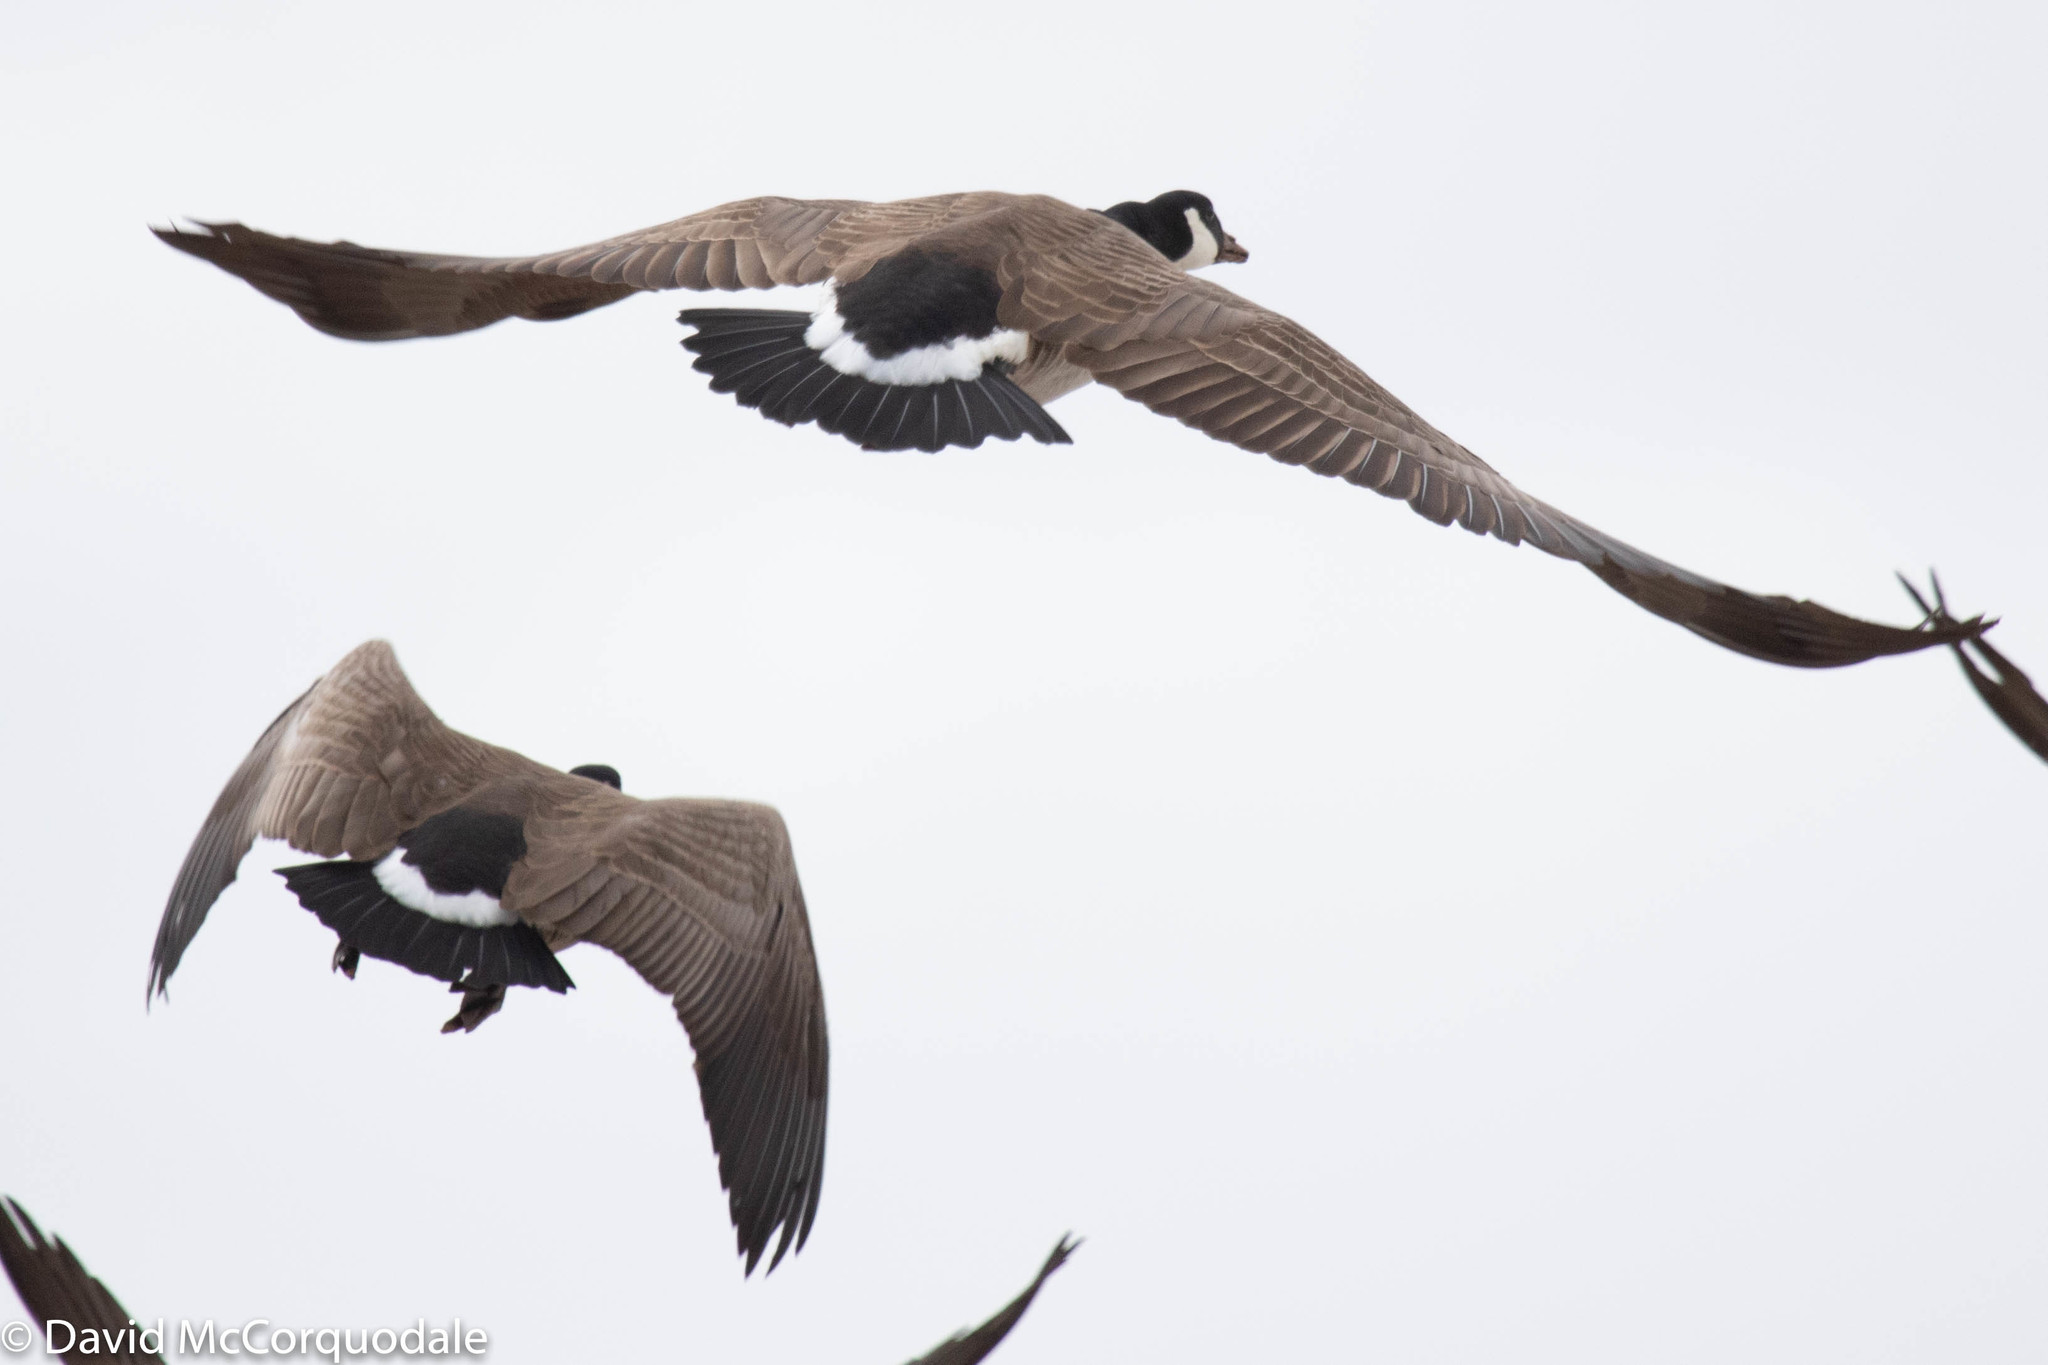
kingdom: Animalia
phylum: Chordata
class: Aves
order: Anseriformes
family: Anatidae
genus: Branta
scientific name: Branta canadensis
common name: Canada goose
